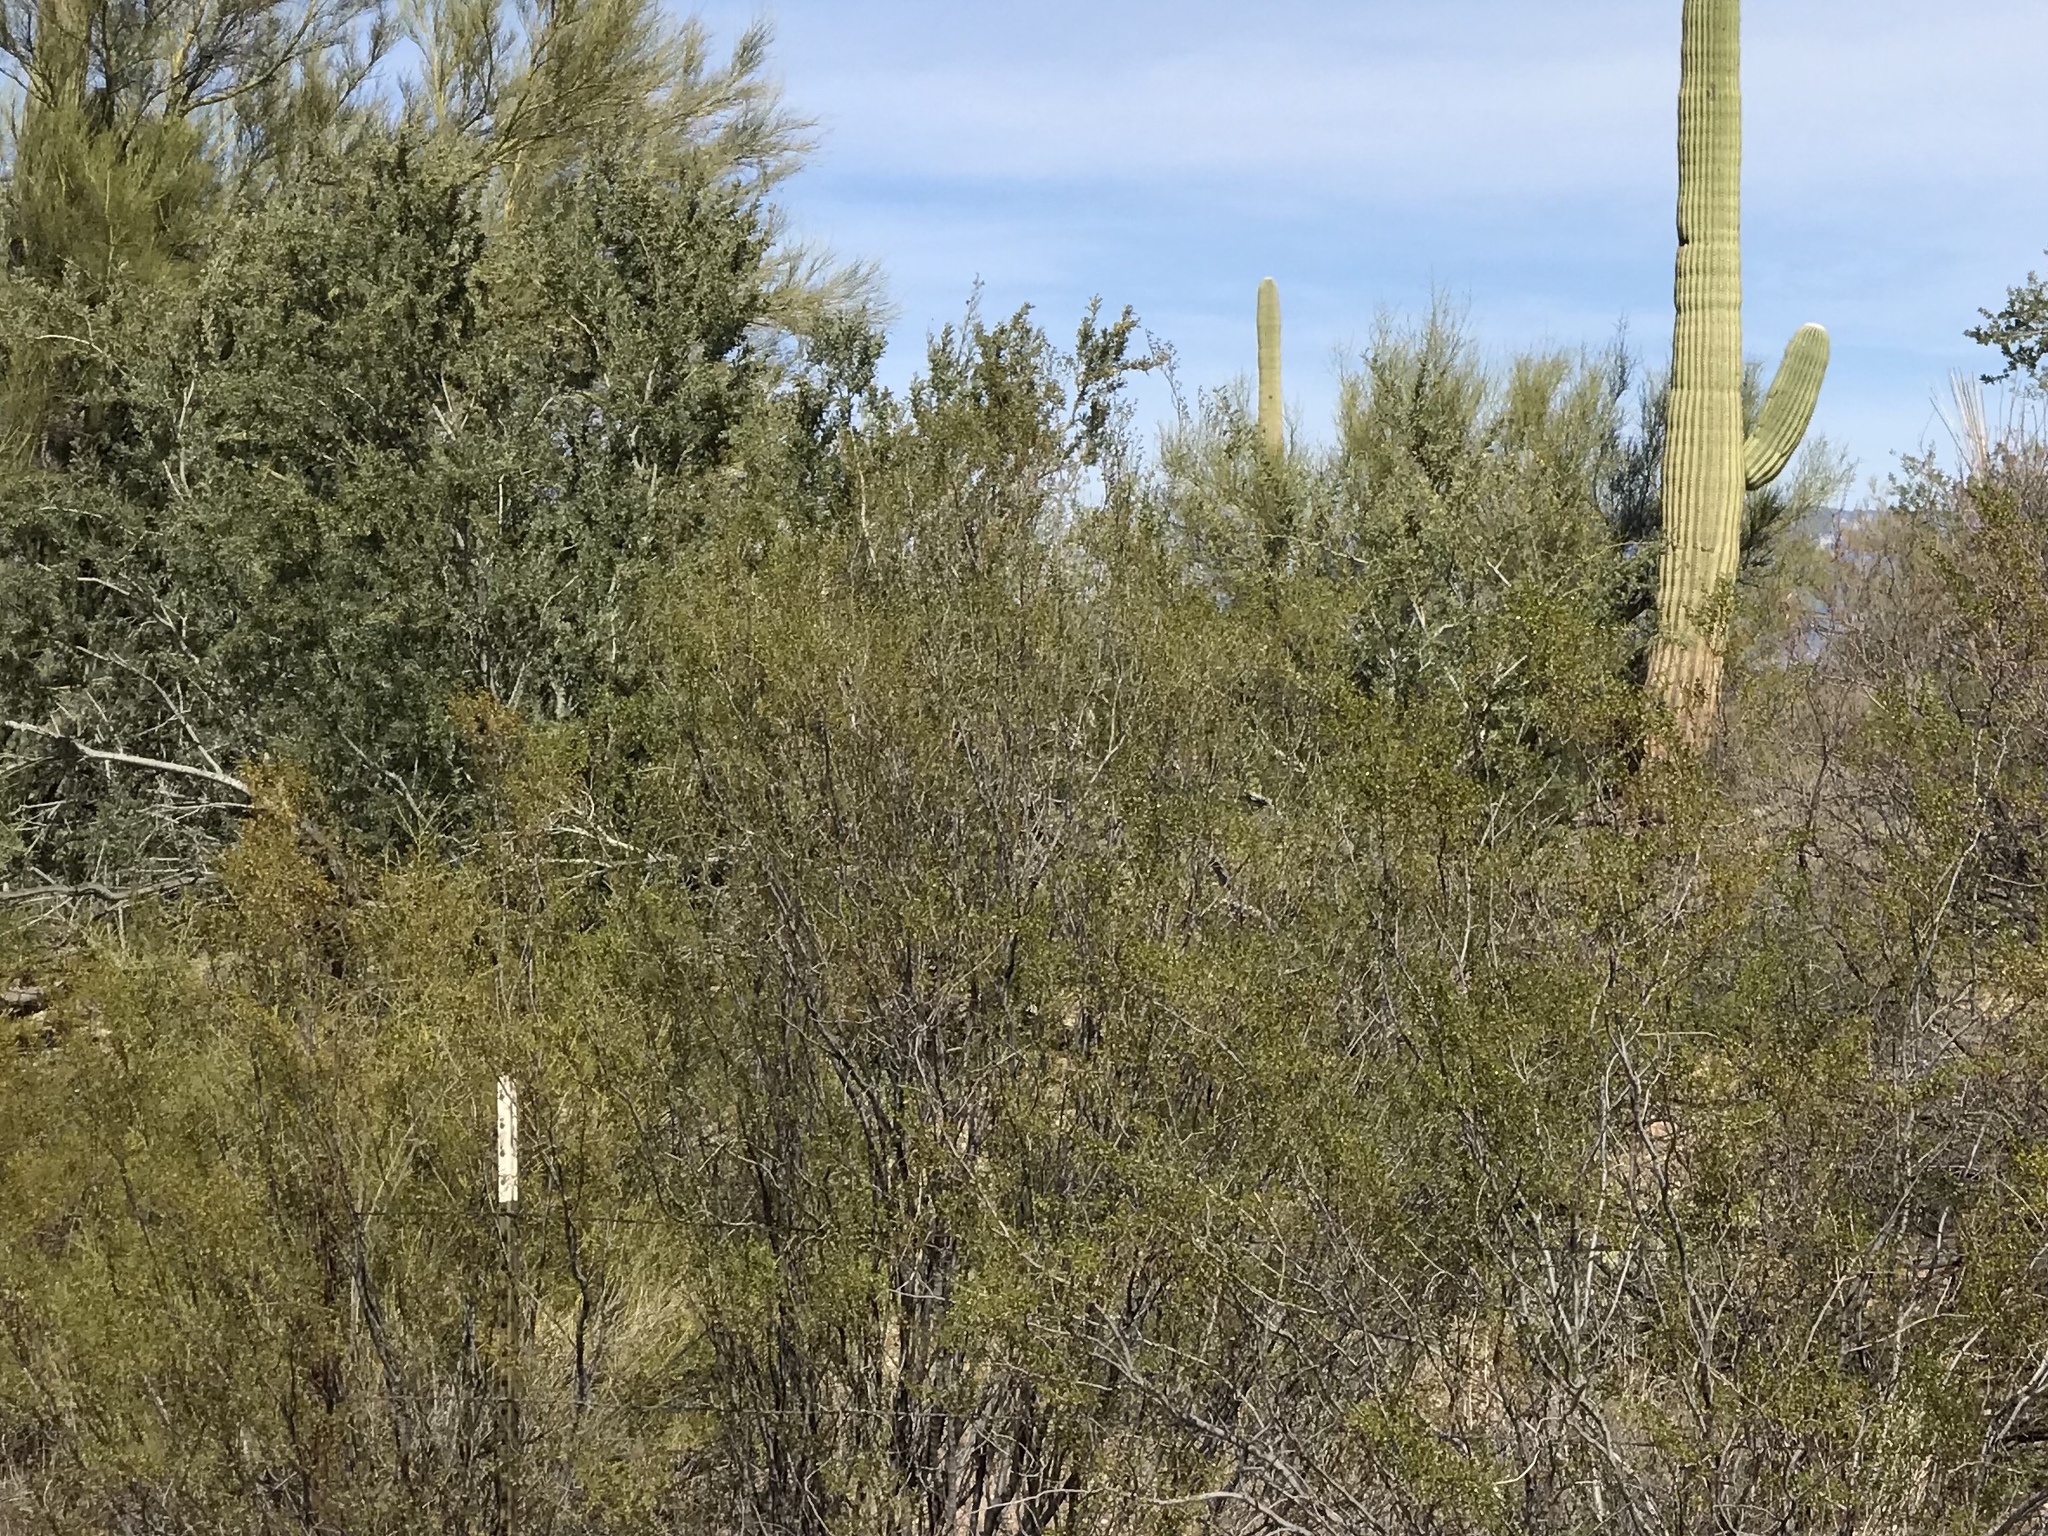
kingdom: Plantae
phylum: Tracheophyta
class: Magnoliopsida
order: Zygophyllales
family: Zygophyllaceae
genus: Larrea
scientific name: Larrea tridentata
